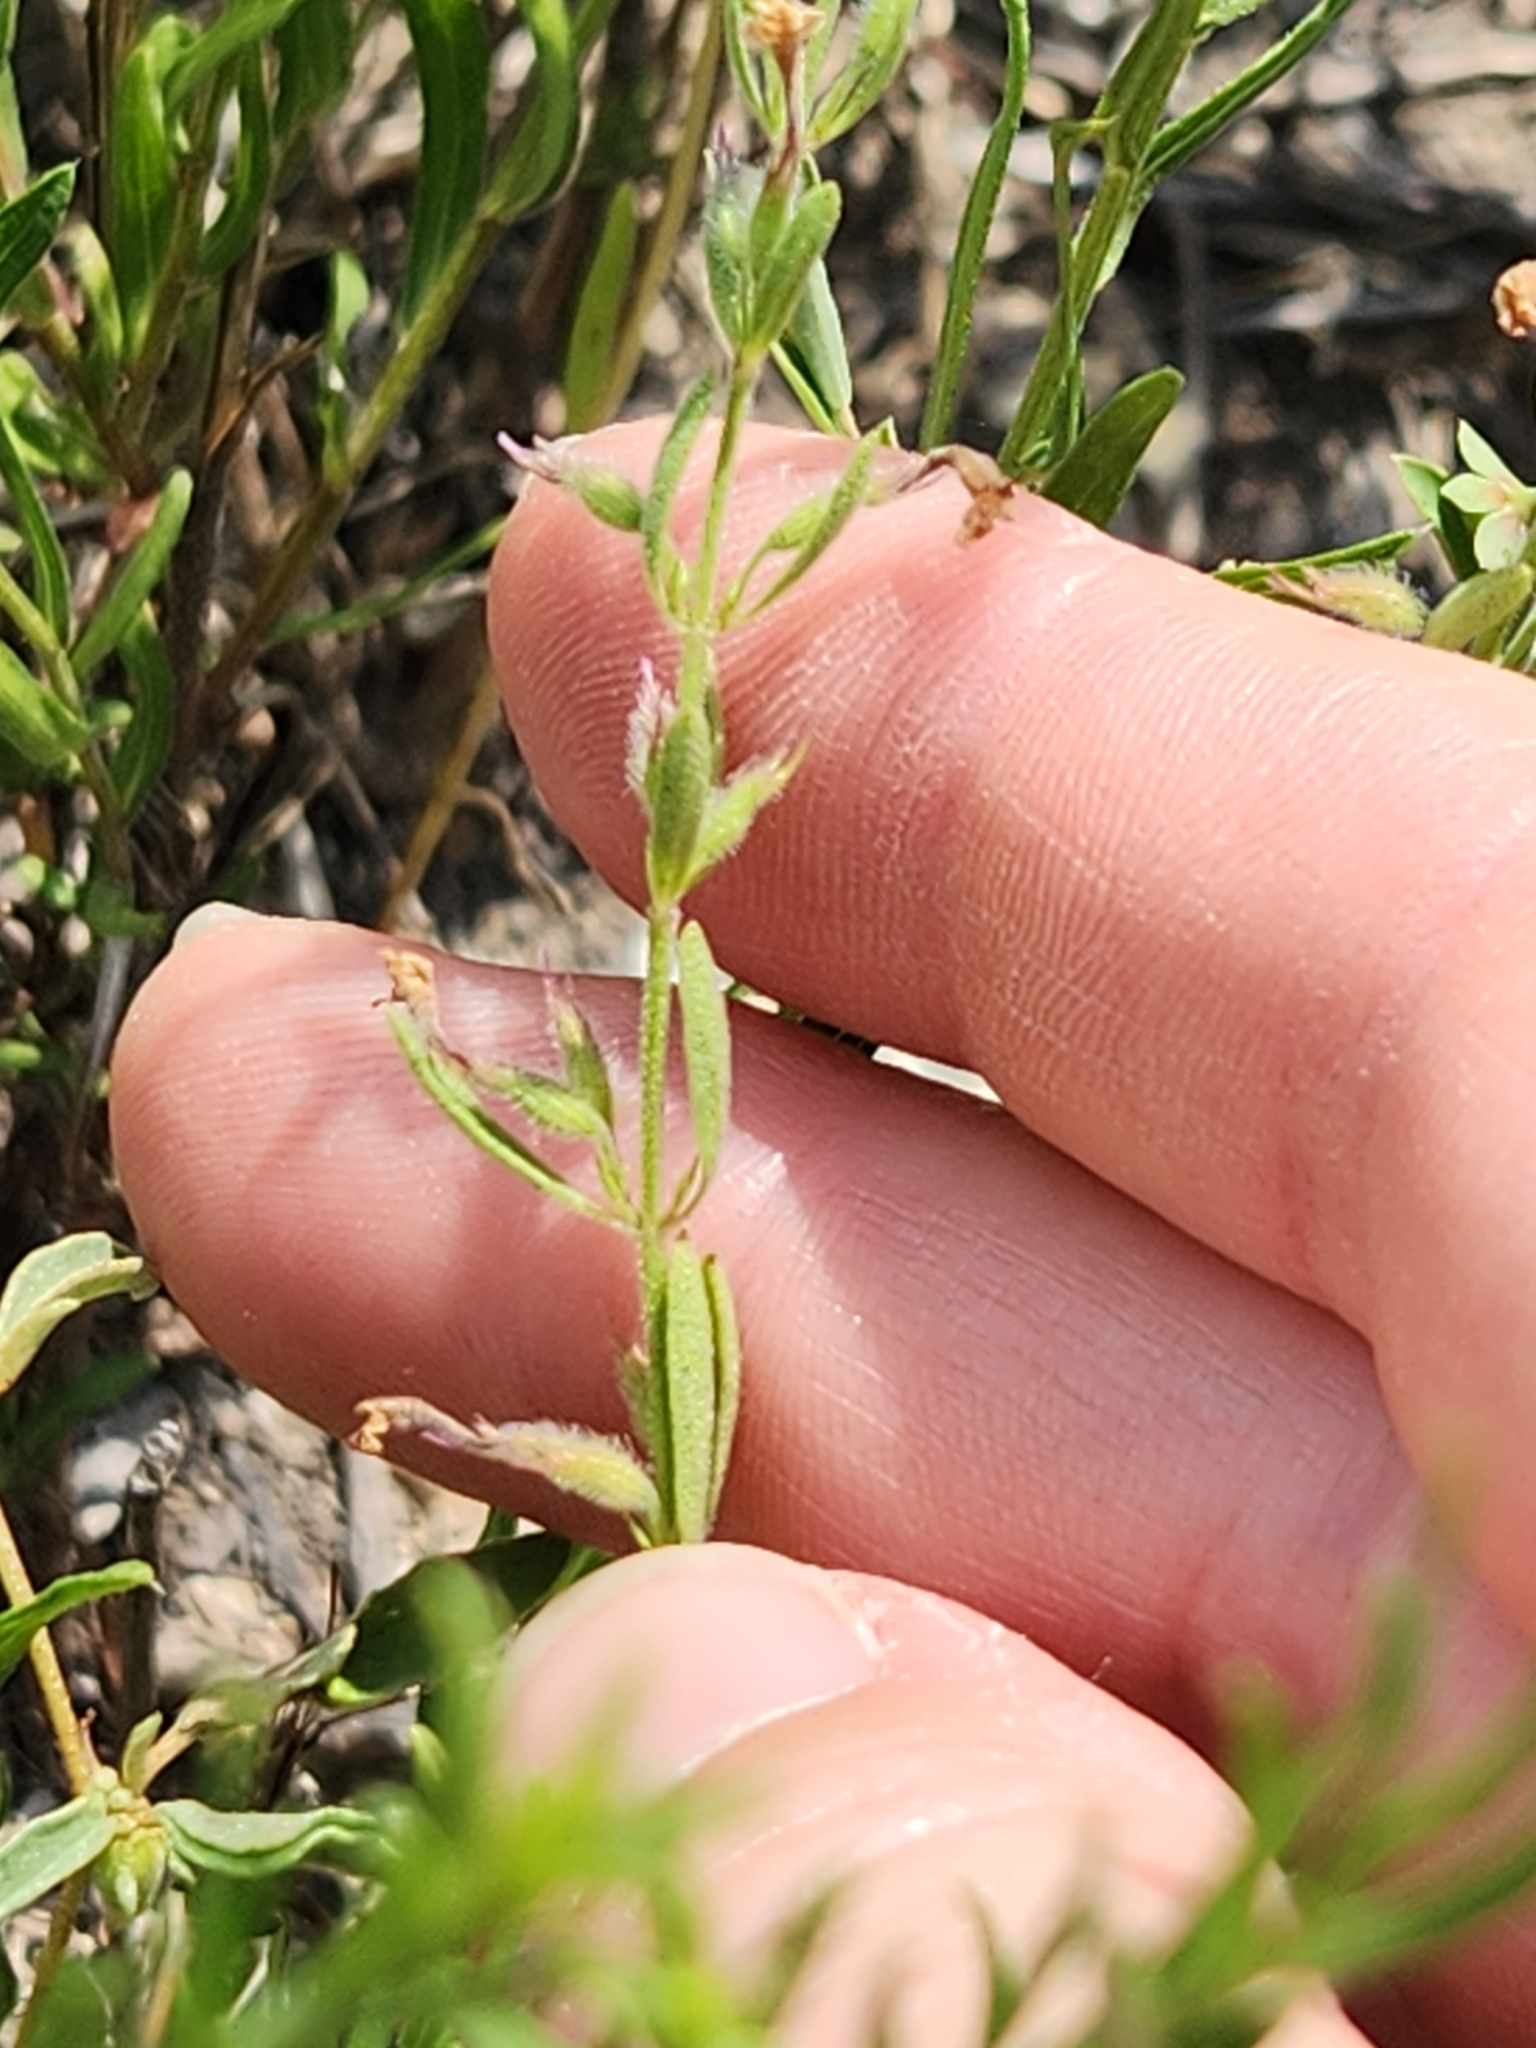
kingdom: Plantae
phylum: Tracheophyta
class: Magnoliopsida
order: Lamiales
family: Lamiaceae
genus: Hedeoma
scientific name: Hedeoma reverchonii
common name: Reverchon's false penny-royal
